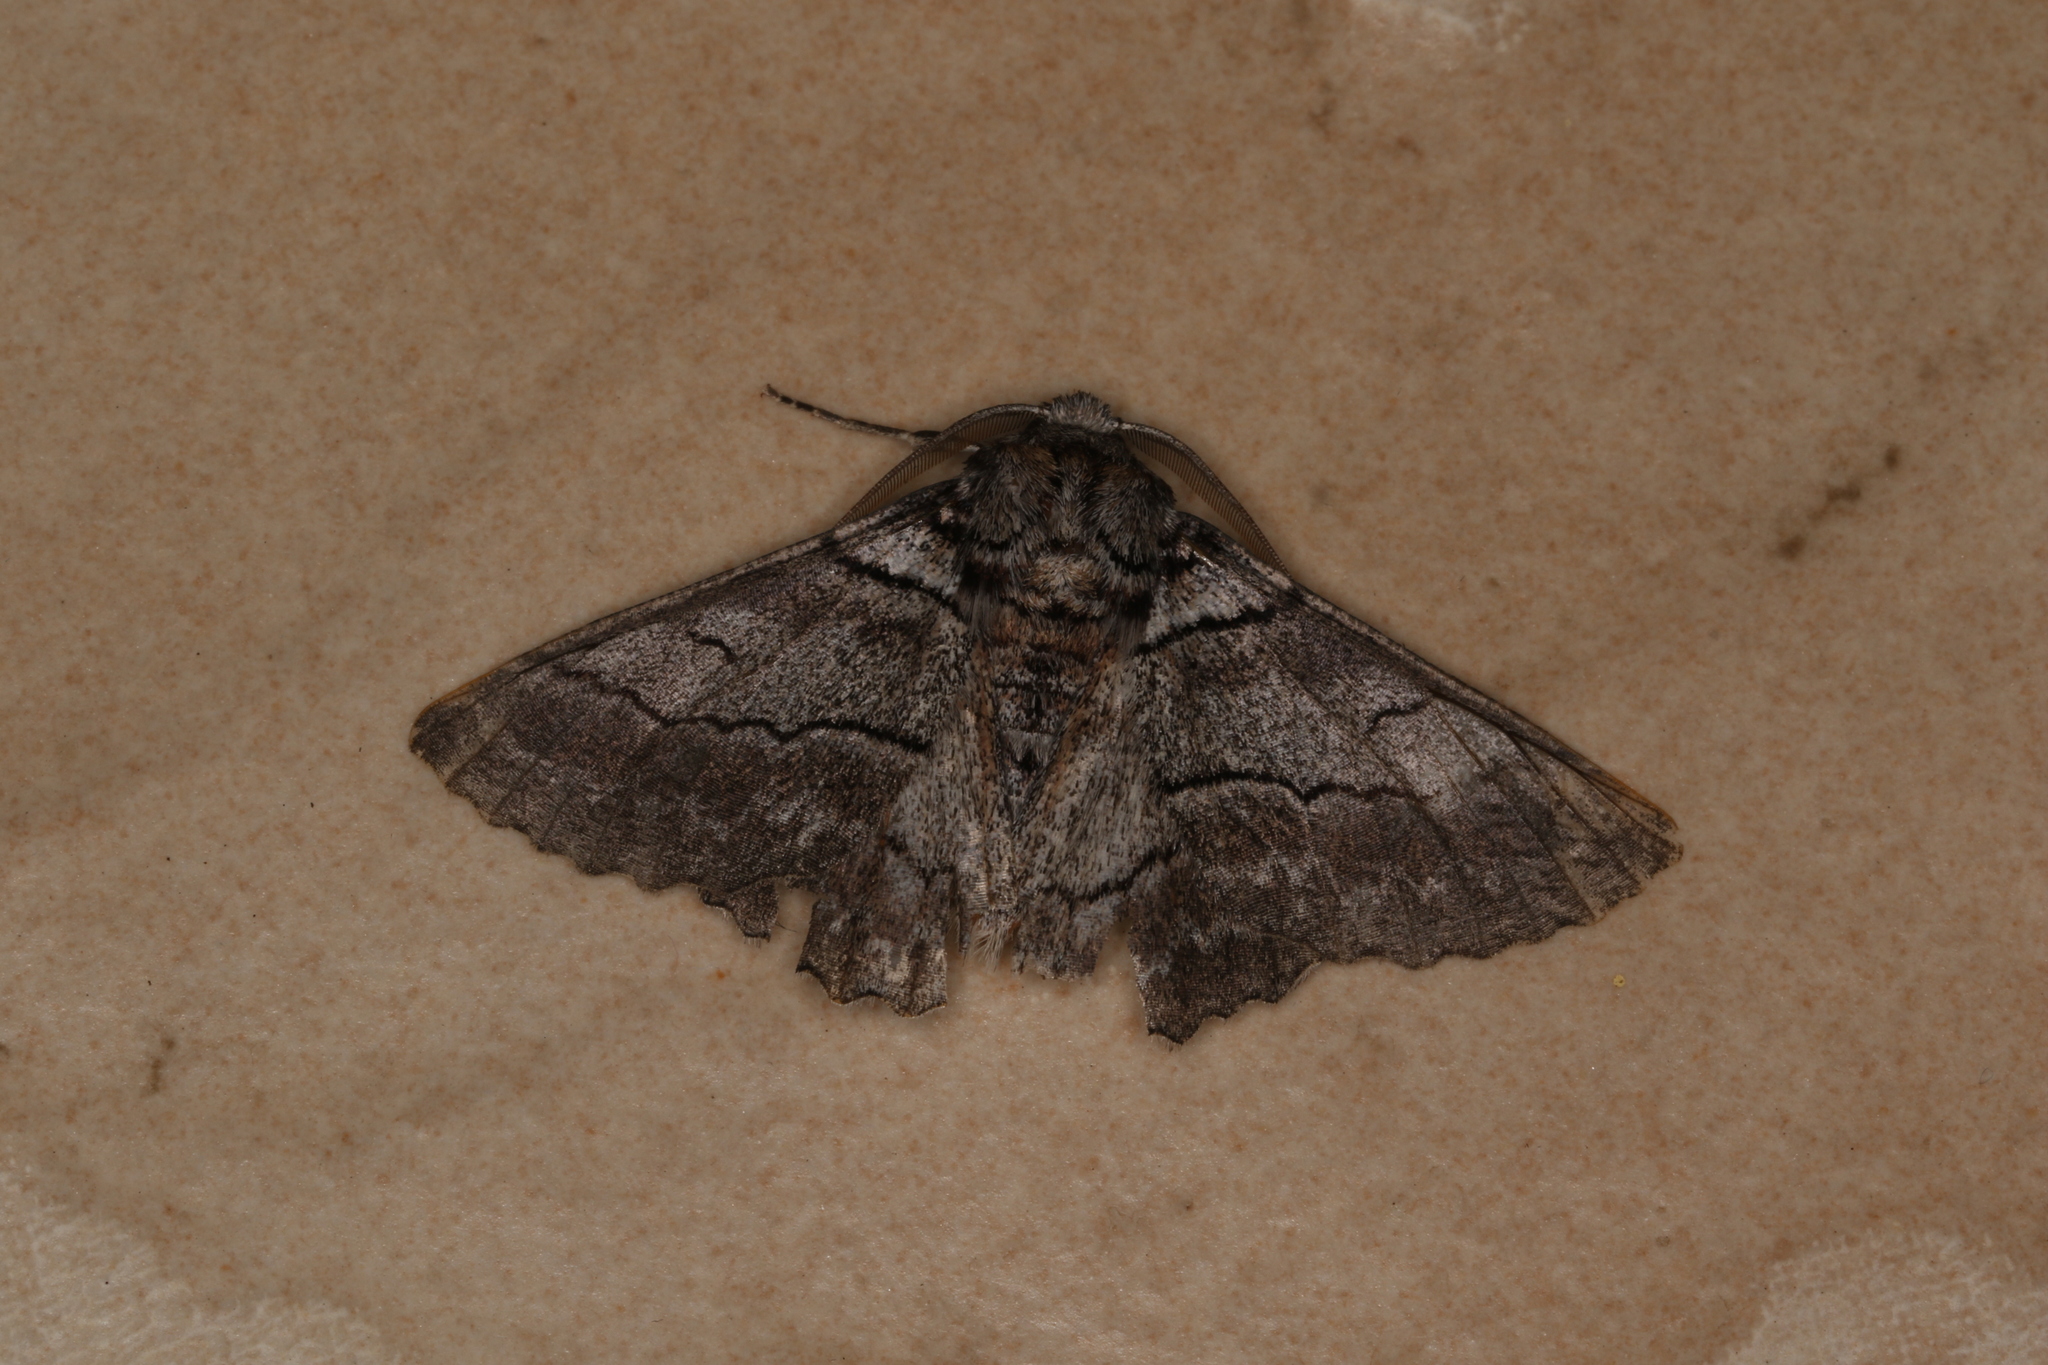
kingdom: Animalia
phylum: Arthropoda
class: Insecta
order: Lepidoptera
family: Geometridae
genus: Hypobapta
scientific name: Hypobapta tachyhalotaria
